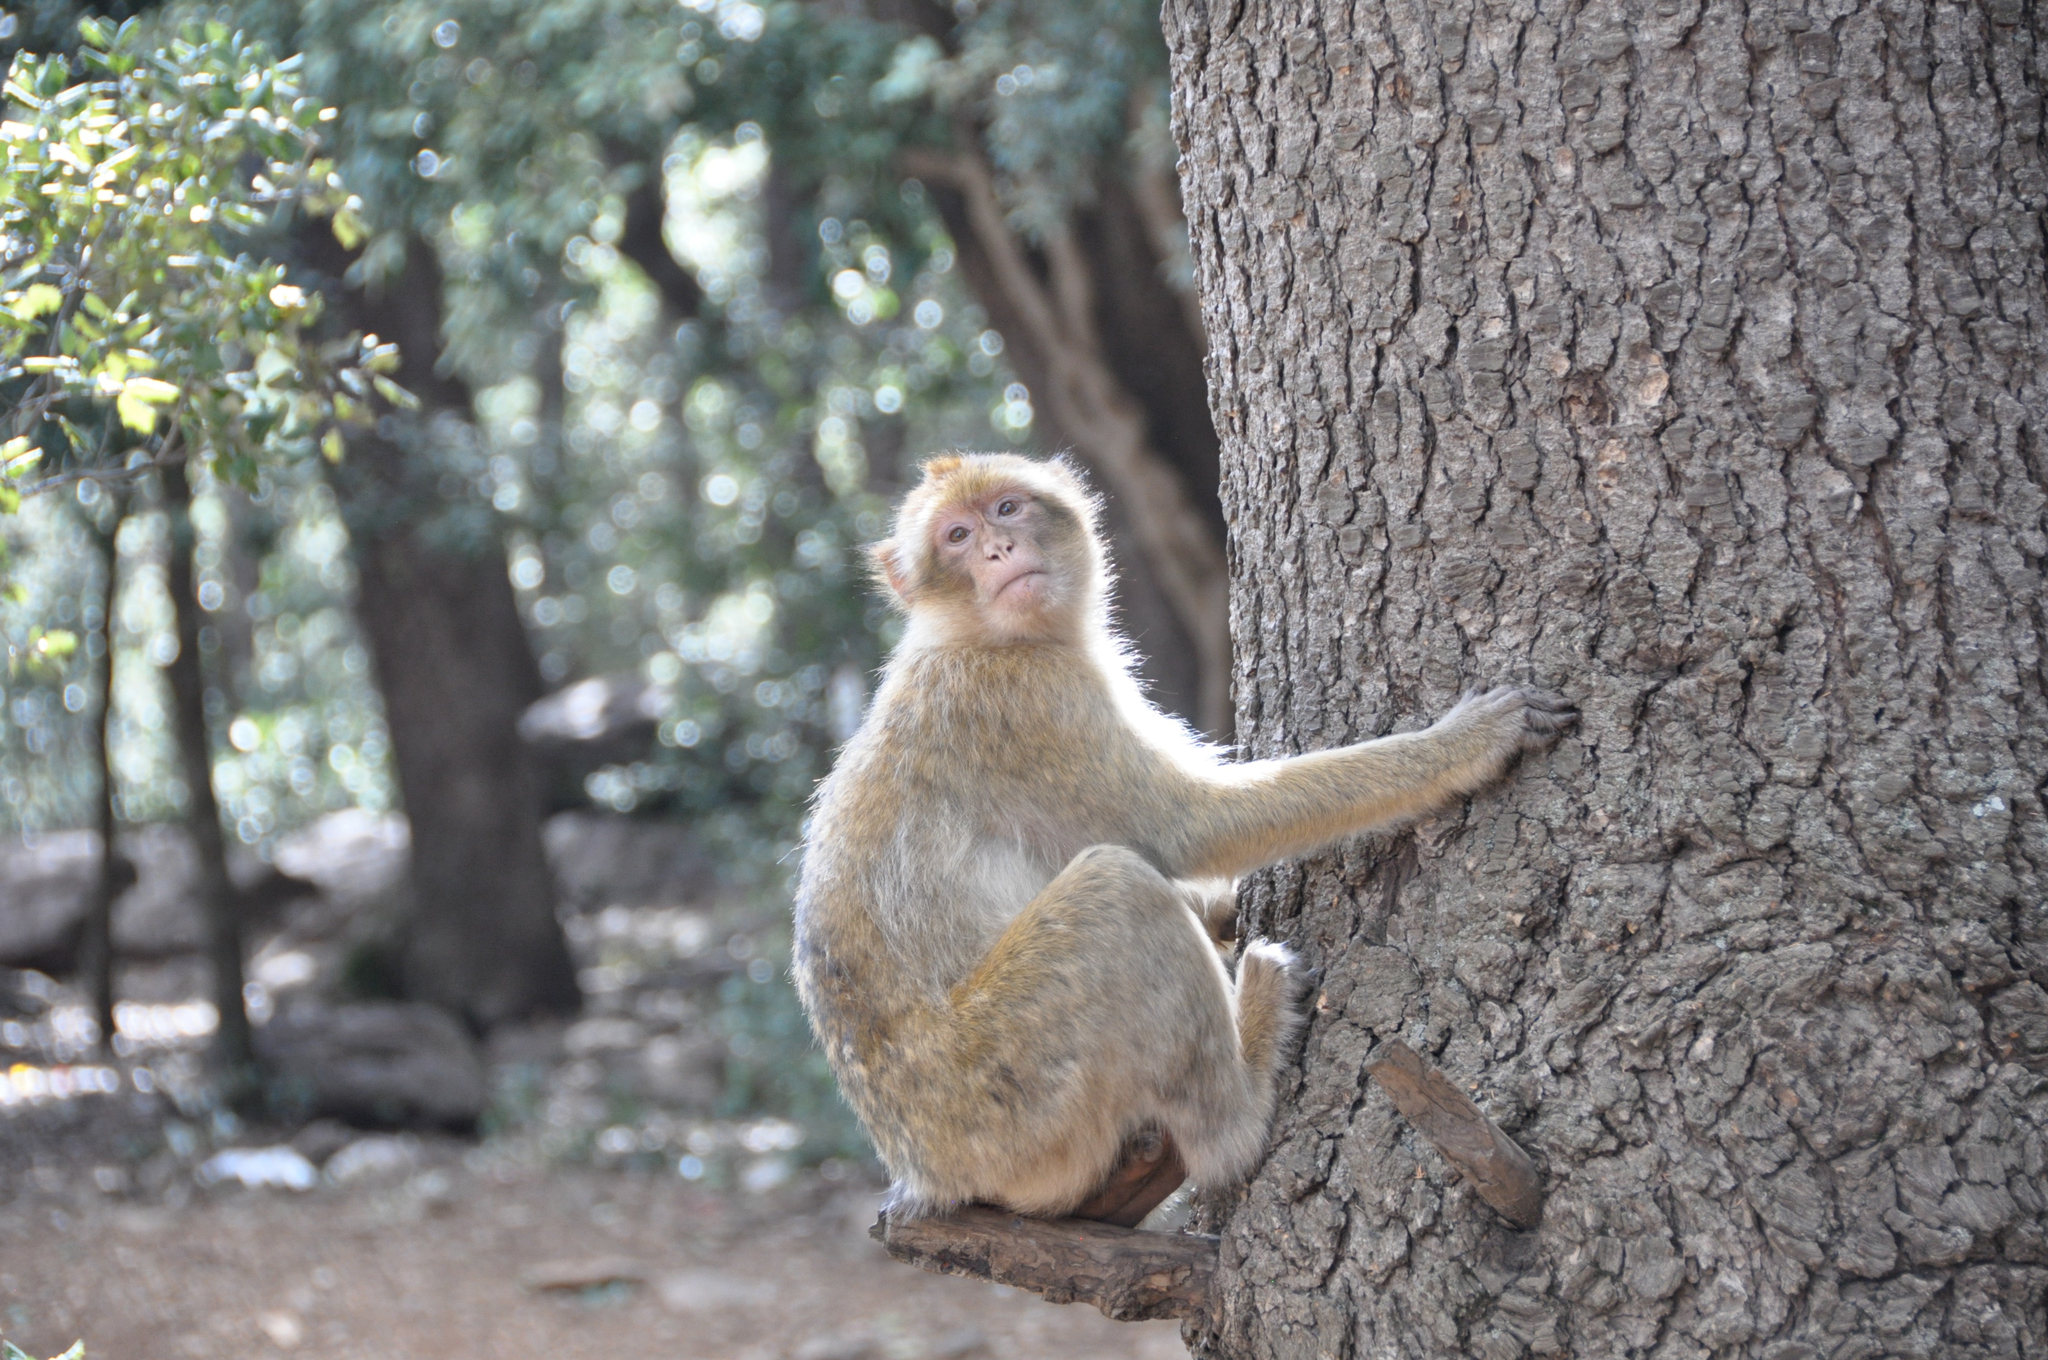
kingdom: Animalia
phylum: Chordata
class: Mammalia
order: Primates
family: Cercopithecidae
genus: Macaca
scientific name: Macaca sylvanus
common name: Barbary macaque
